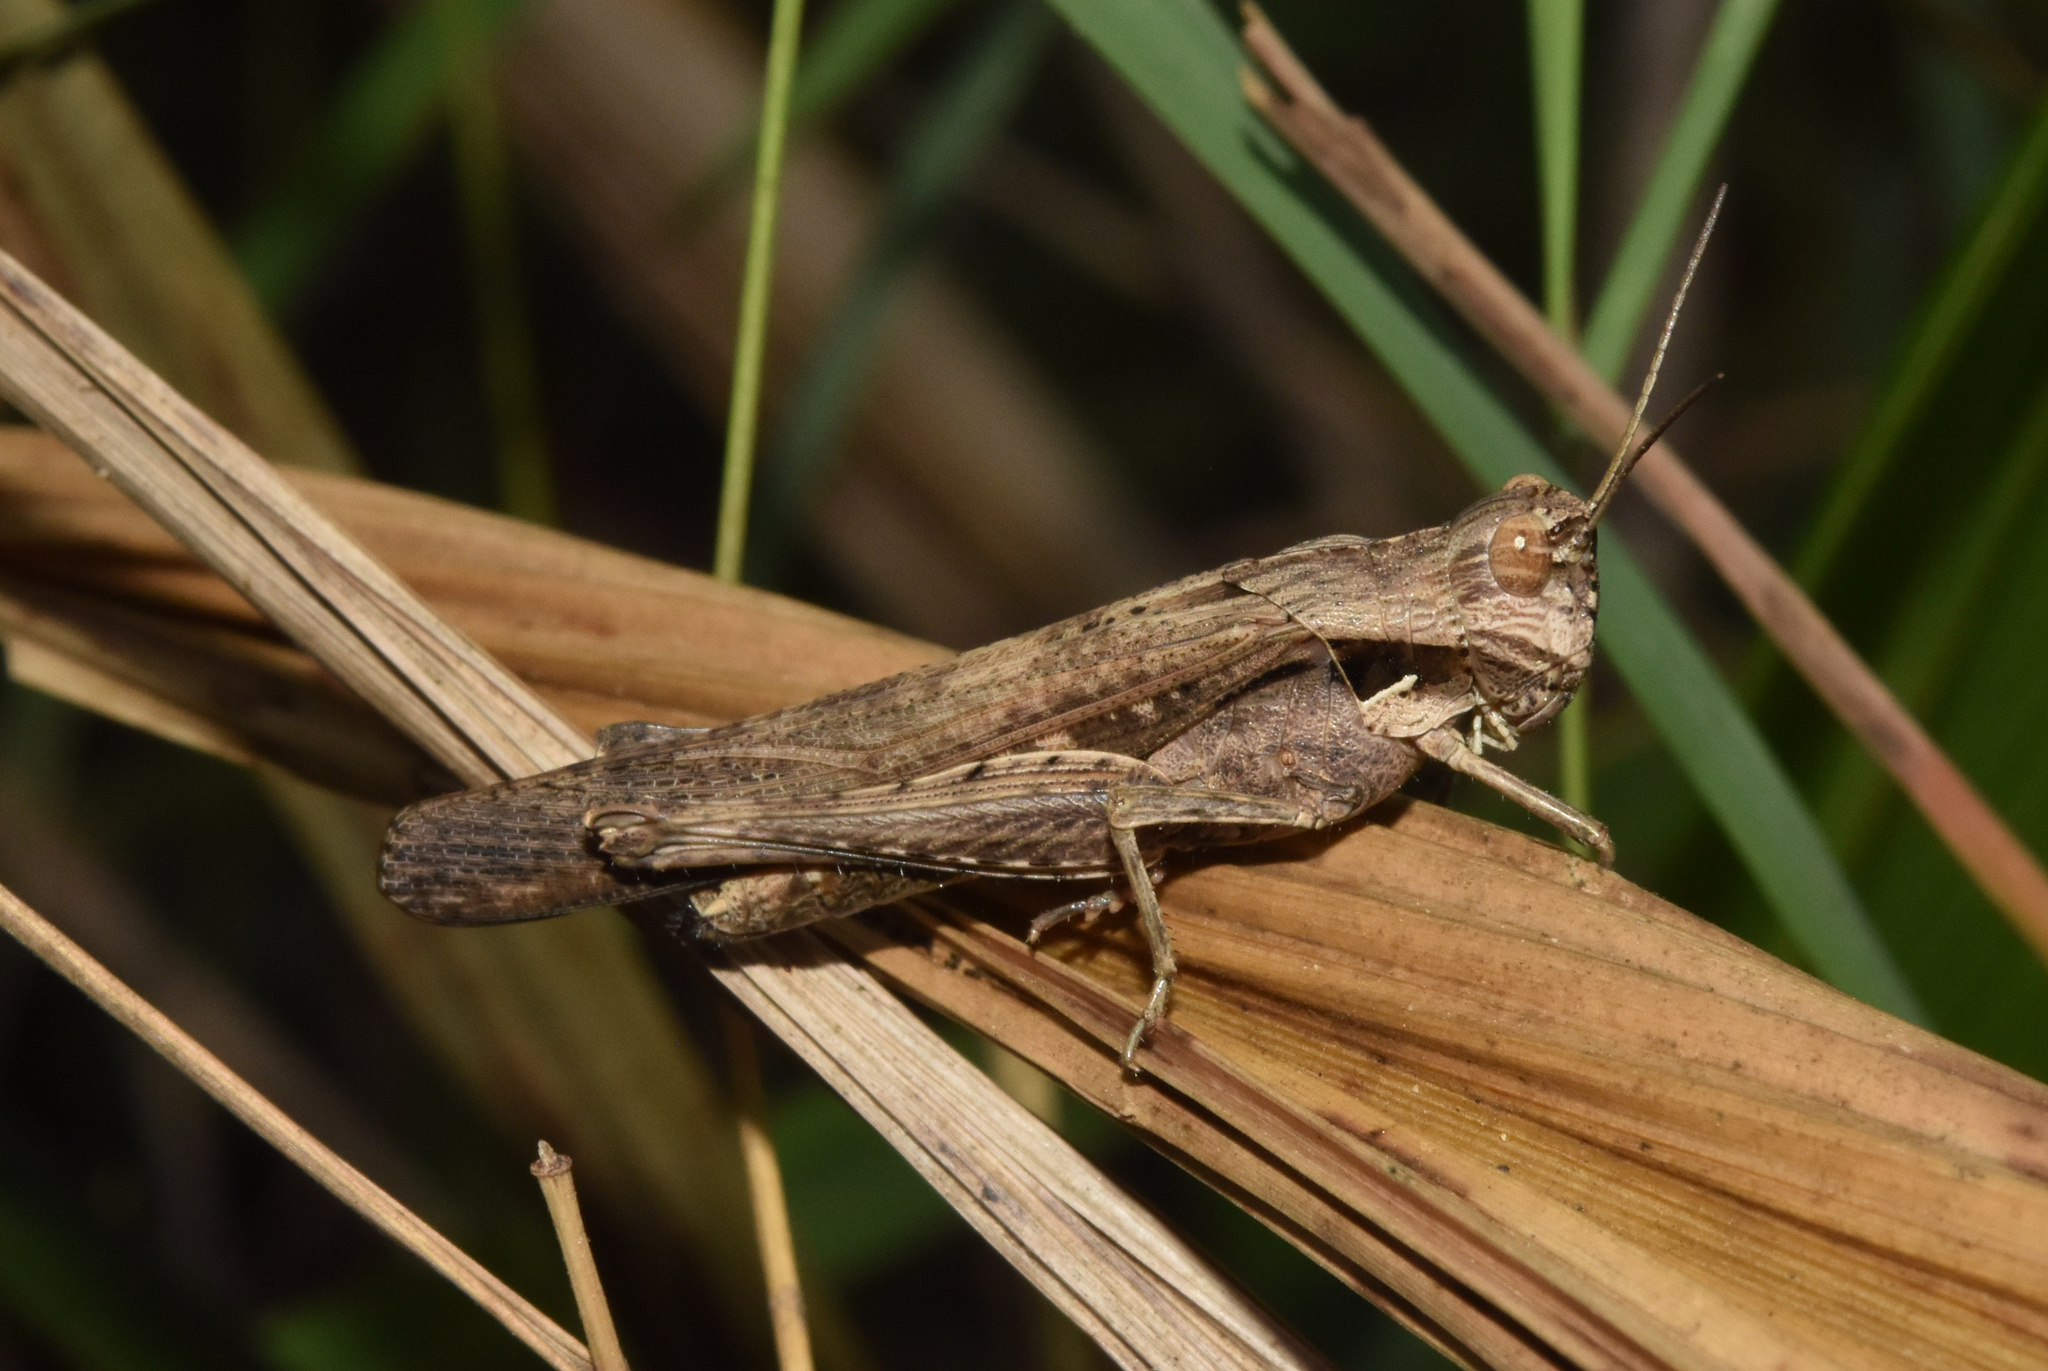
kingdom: Animalia
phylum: Arthropoda
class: Insecta
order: Orthoptera
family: Acrididae
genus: Morphacris
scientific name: Morphacris fasciata
